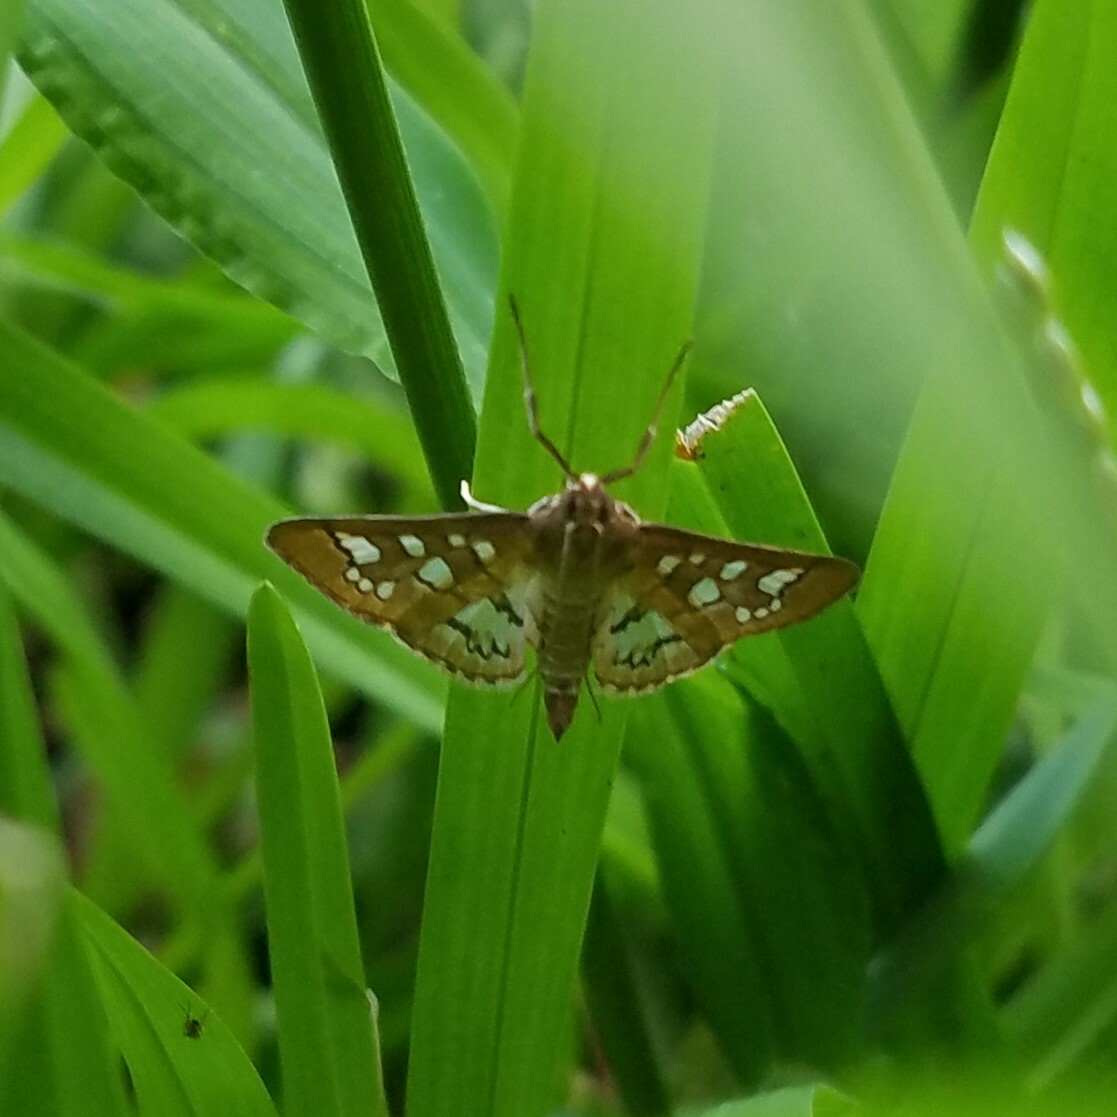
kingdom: Animalia
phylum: Arthropoda
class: Insecta
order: Lepidoptera
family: Crambidae
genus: Samea
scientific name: Samea baccatalis
